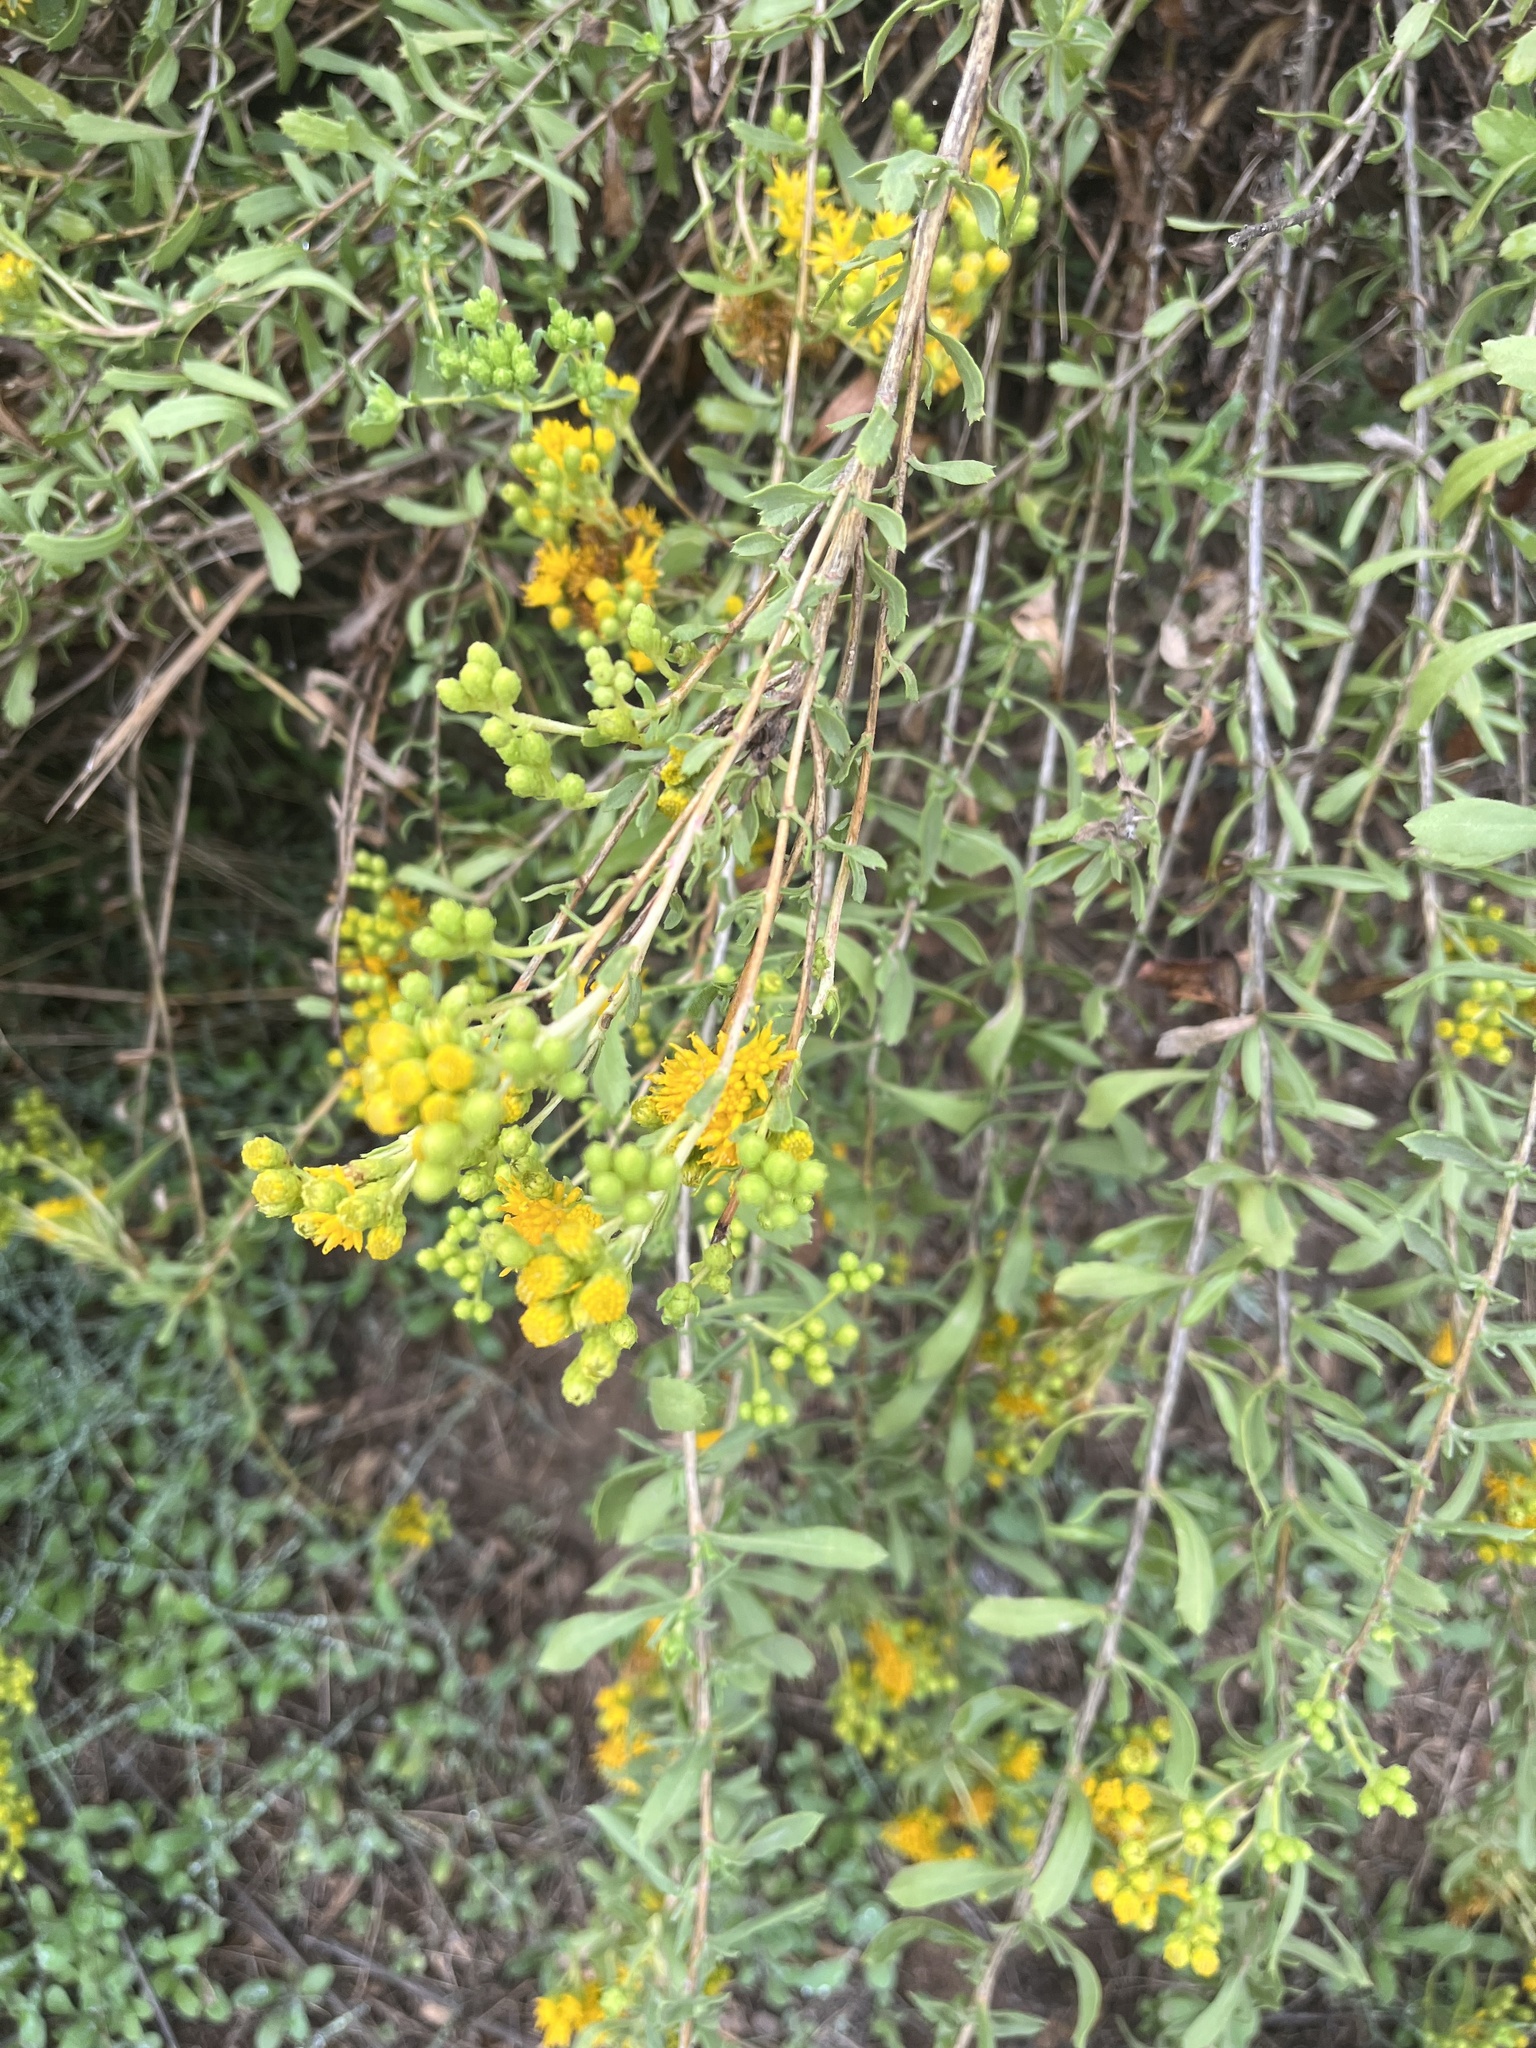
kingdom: Plantae
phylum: Tracheophyta
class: Magnoliopsida
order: Asterales
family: Asteraceae
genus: Isocoma
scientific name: Isocoma menziesii
